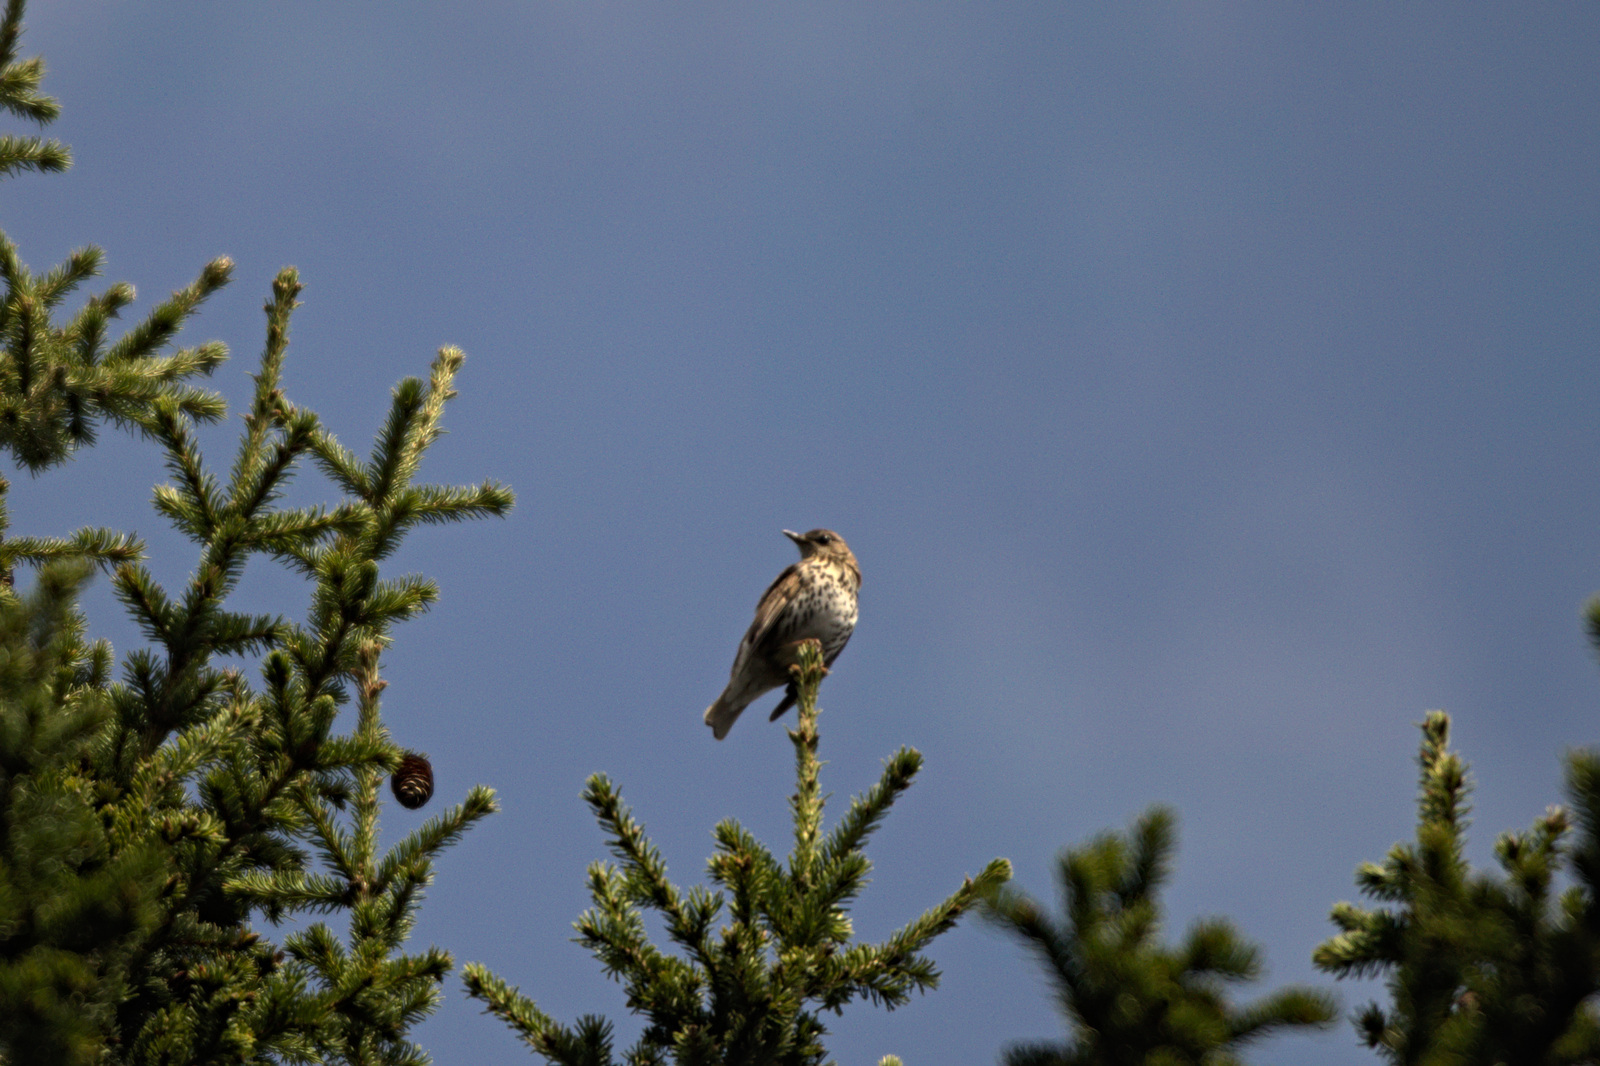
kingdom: Animalia
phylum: Chordata
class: Aves
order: Passeriformes
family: Turdidae
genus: Turdus
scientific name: Turdus philomelos
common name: Song thrush
